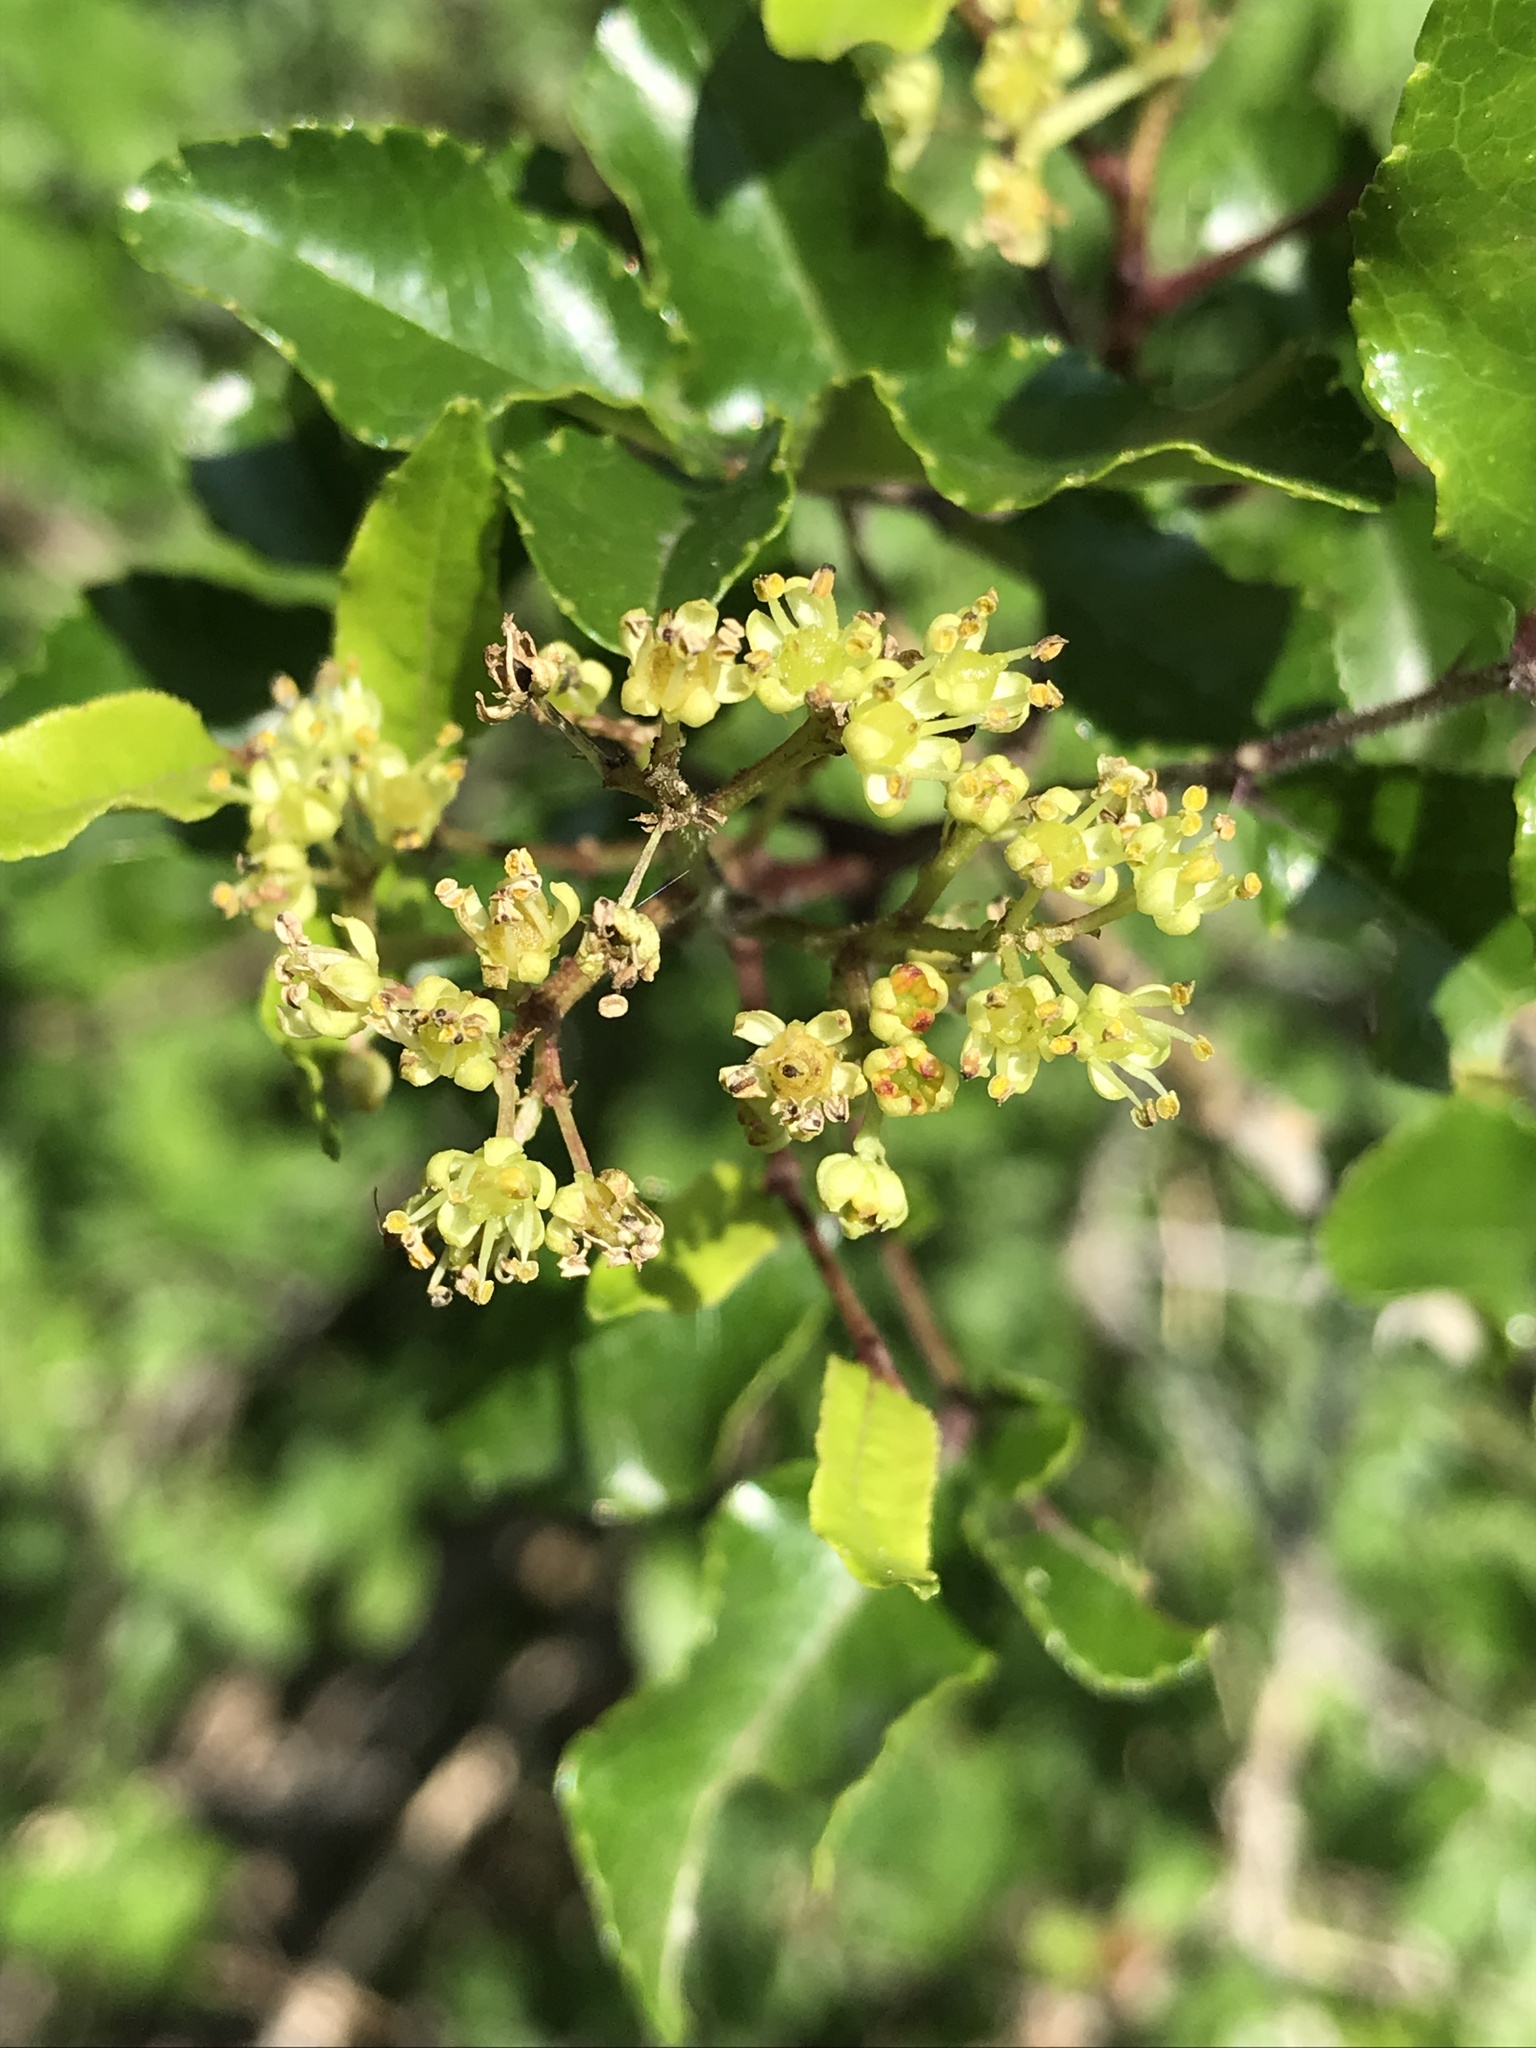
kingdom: Plantae
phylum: Tracheophyta
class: Magnoliopsida
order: Sapindales
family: Rutaceae
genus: Zanthoxylum
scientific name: Zanthoxylum clava-herculis
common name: Hercules'-club
